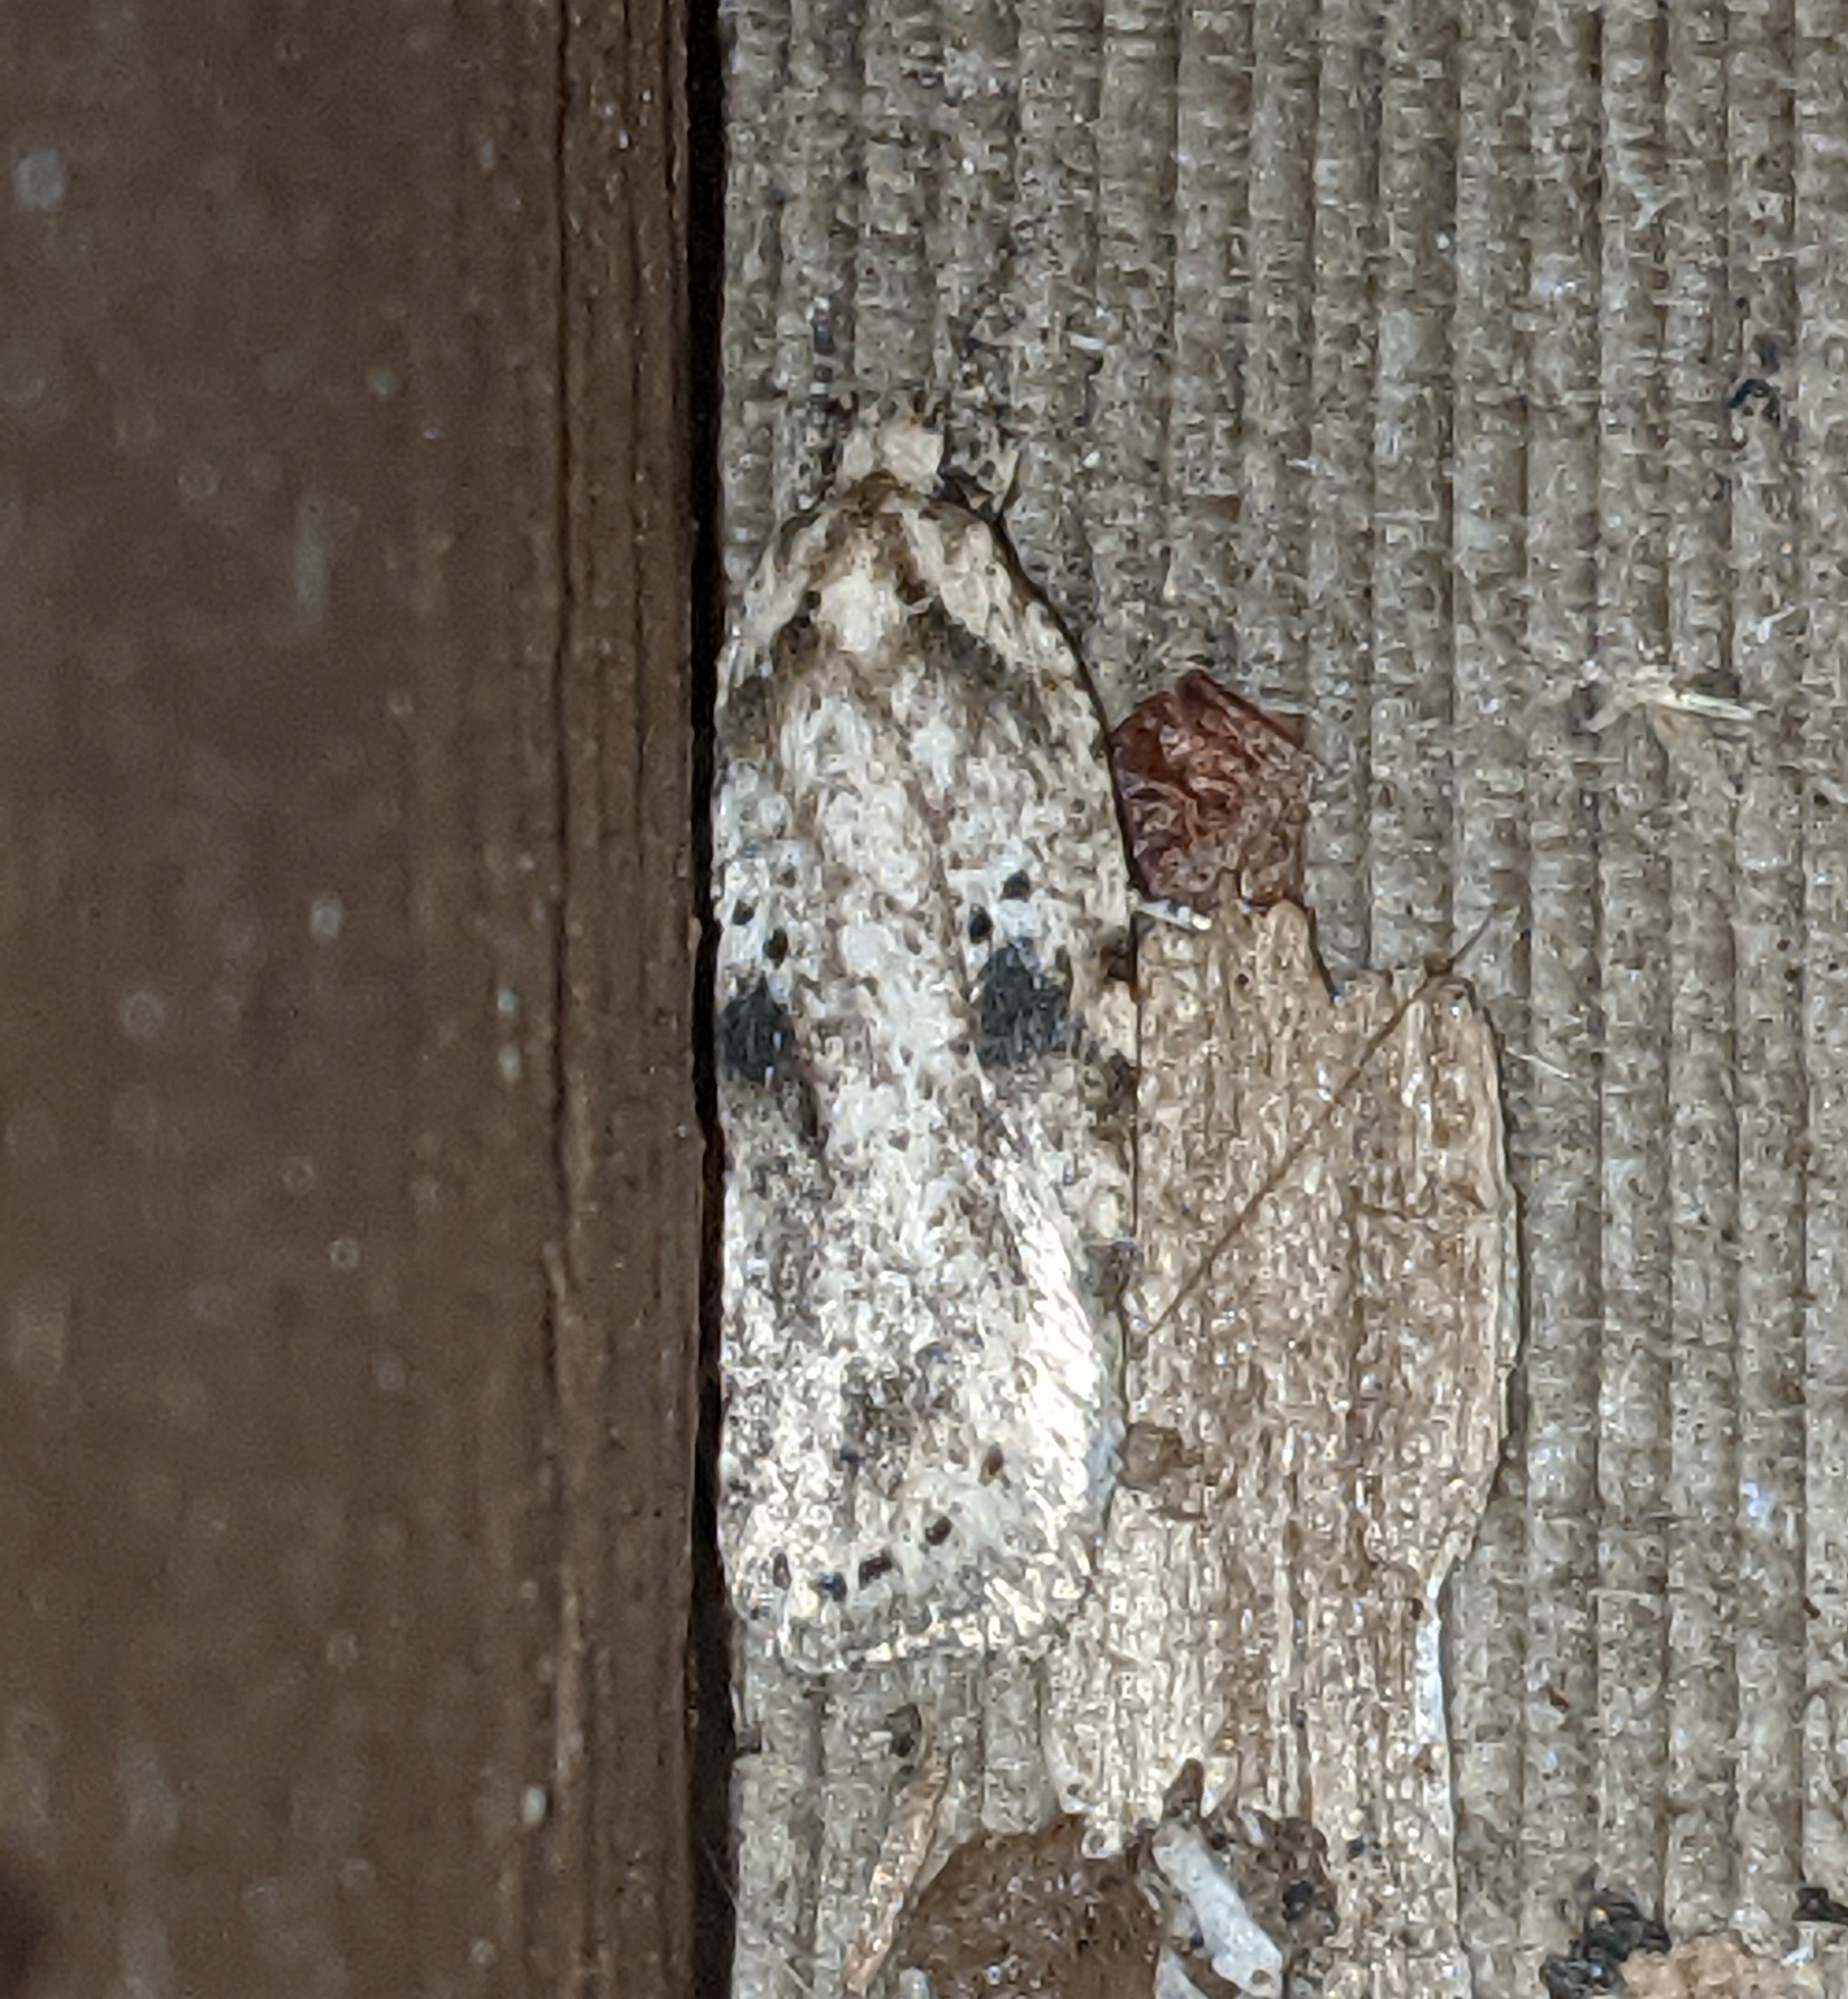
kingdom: Animalia
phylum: Arthropoda
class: Insecta
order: Lepidoptera
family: Depressariidae
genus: Agonopterix
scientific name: Agonopterix canadensis
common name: Canadian agonopterix moth
